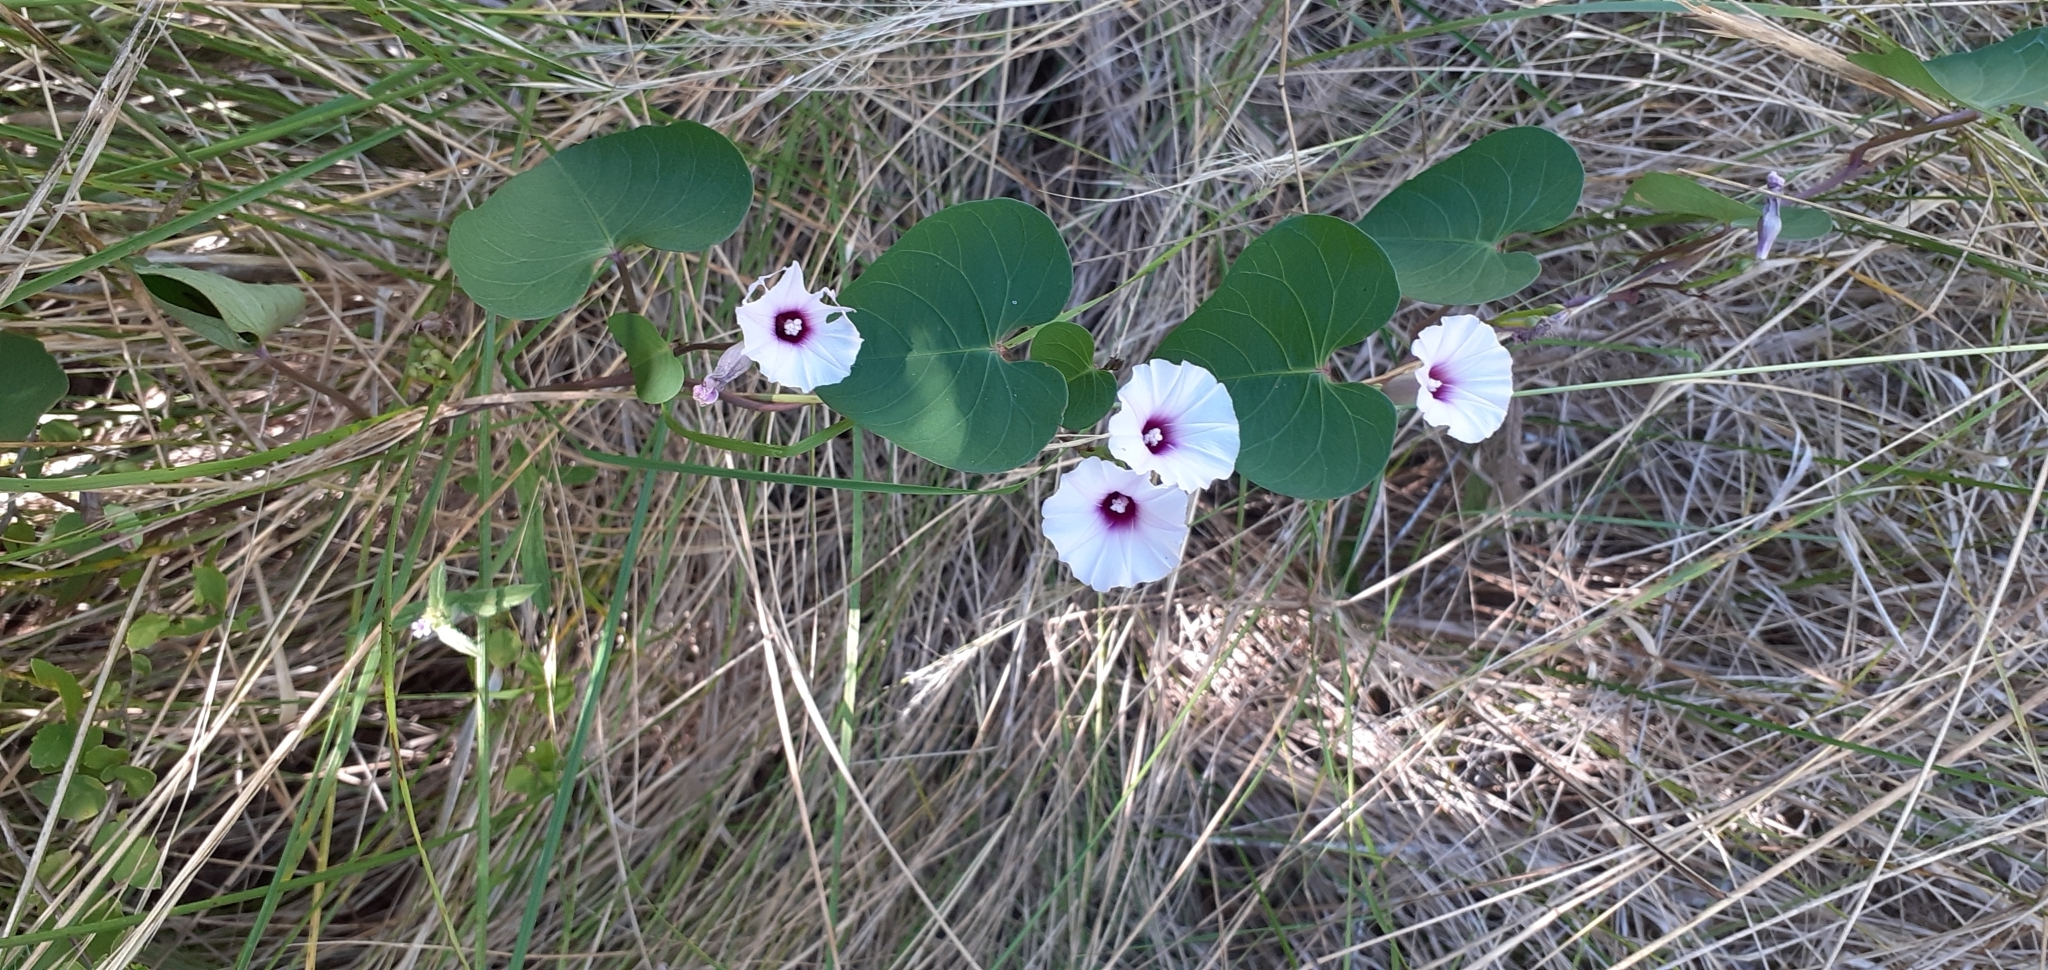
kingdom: Plantae
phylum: Tracheophyta
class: Magnoliopsida
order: Solanales
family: Convolvulaceae
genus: Ipomoea
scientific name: Ipomoea amnicola
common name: Redcenter morning-glory
